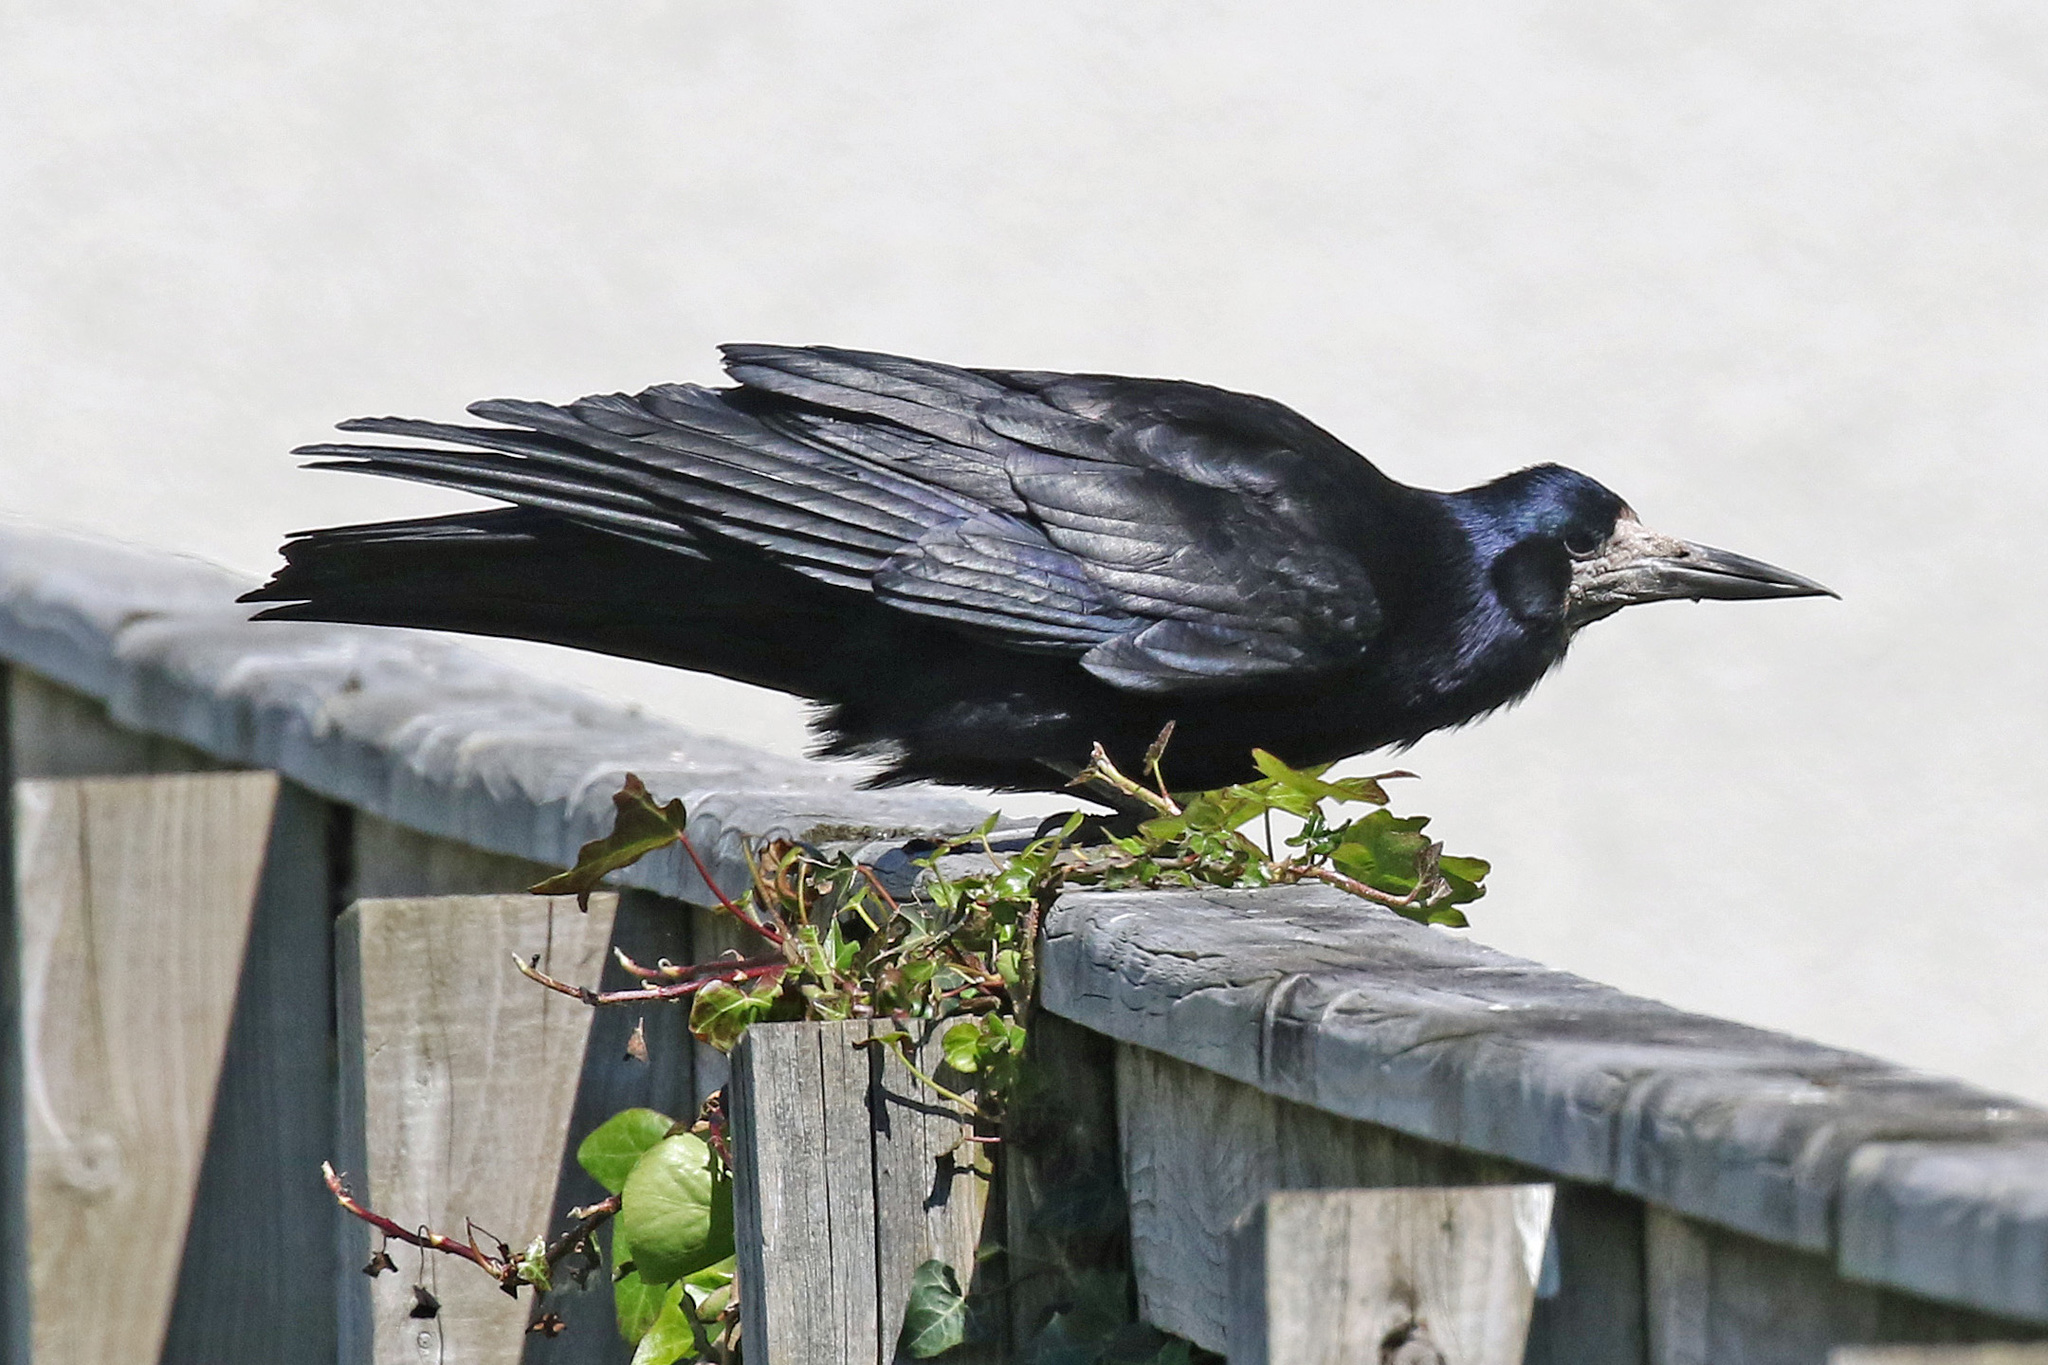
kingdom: Animalia
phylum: Chordata
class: Aves
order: Passeriformes
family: Corvidae
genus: Corvus
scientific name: Corvus frugilegus
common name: Rook
